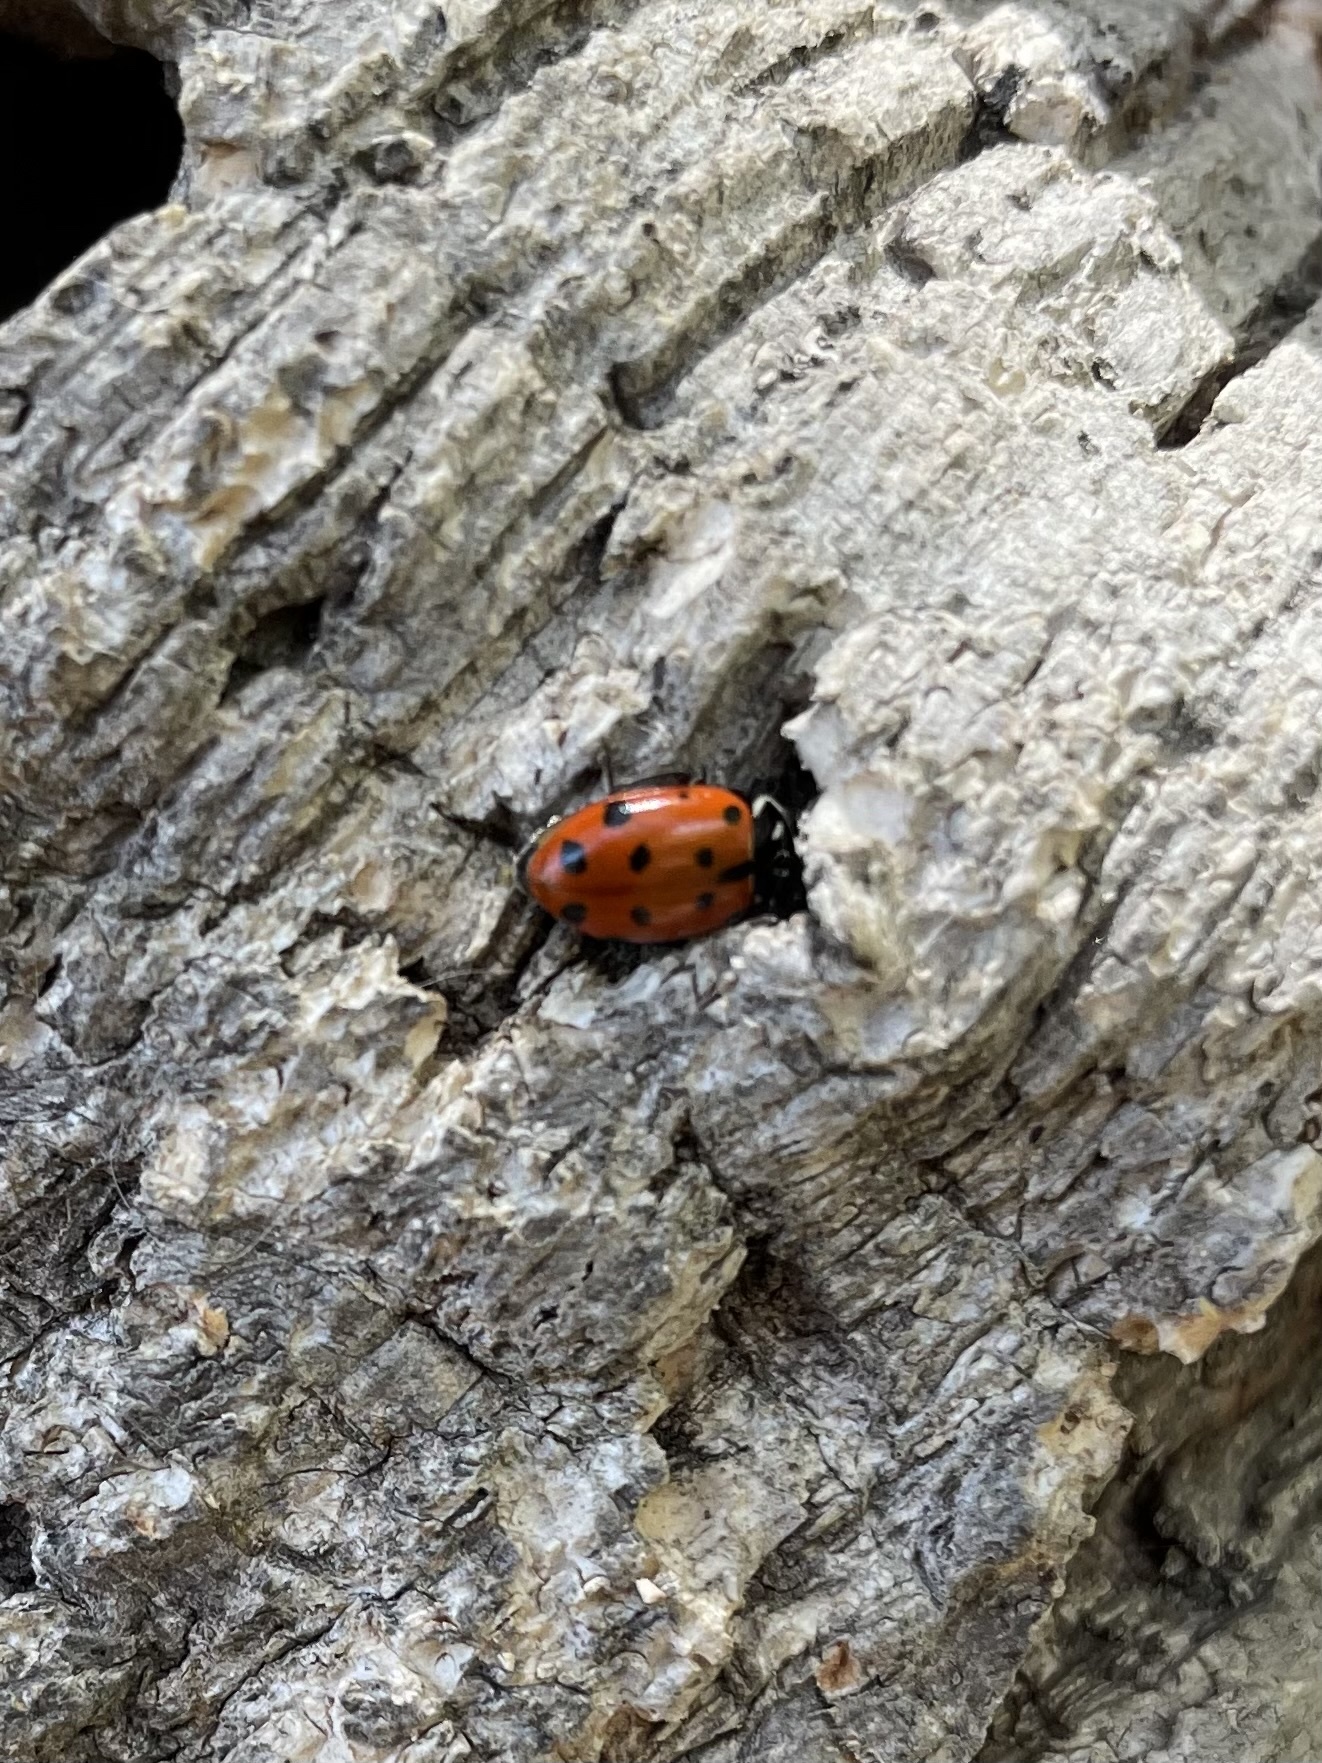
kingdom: Animalia
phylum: Arthropoda
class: Insecta
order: Coleoptera
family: Coccinellidae
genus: Hippodamia
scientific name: Hippodamia convergens
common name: Convergent lady beetle
